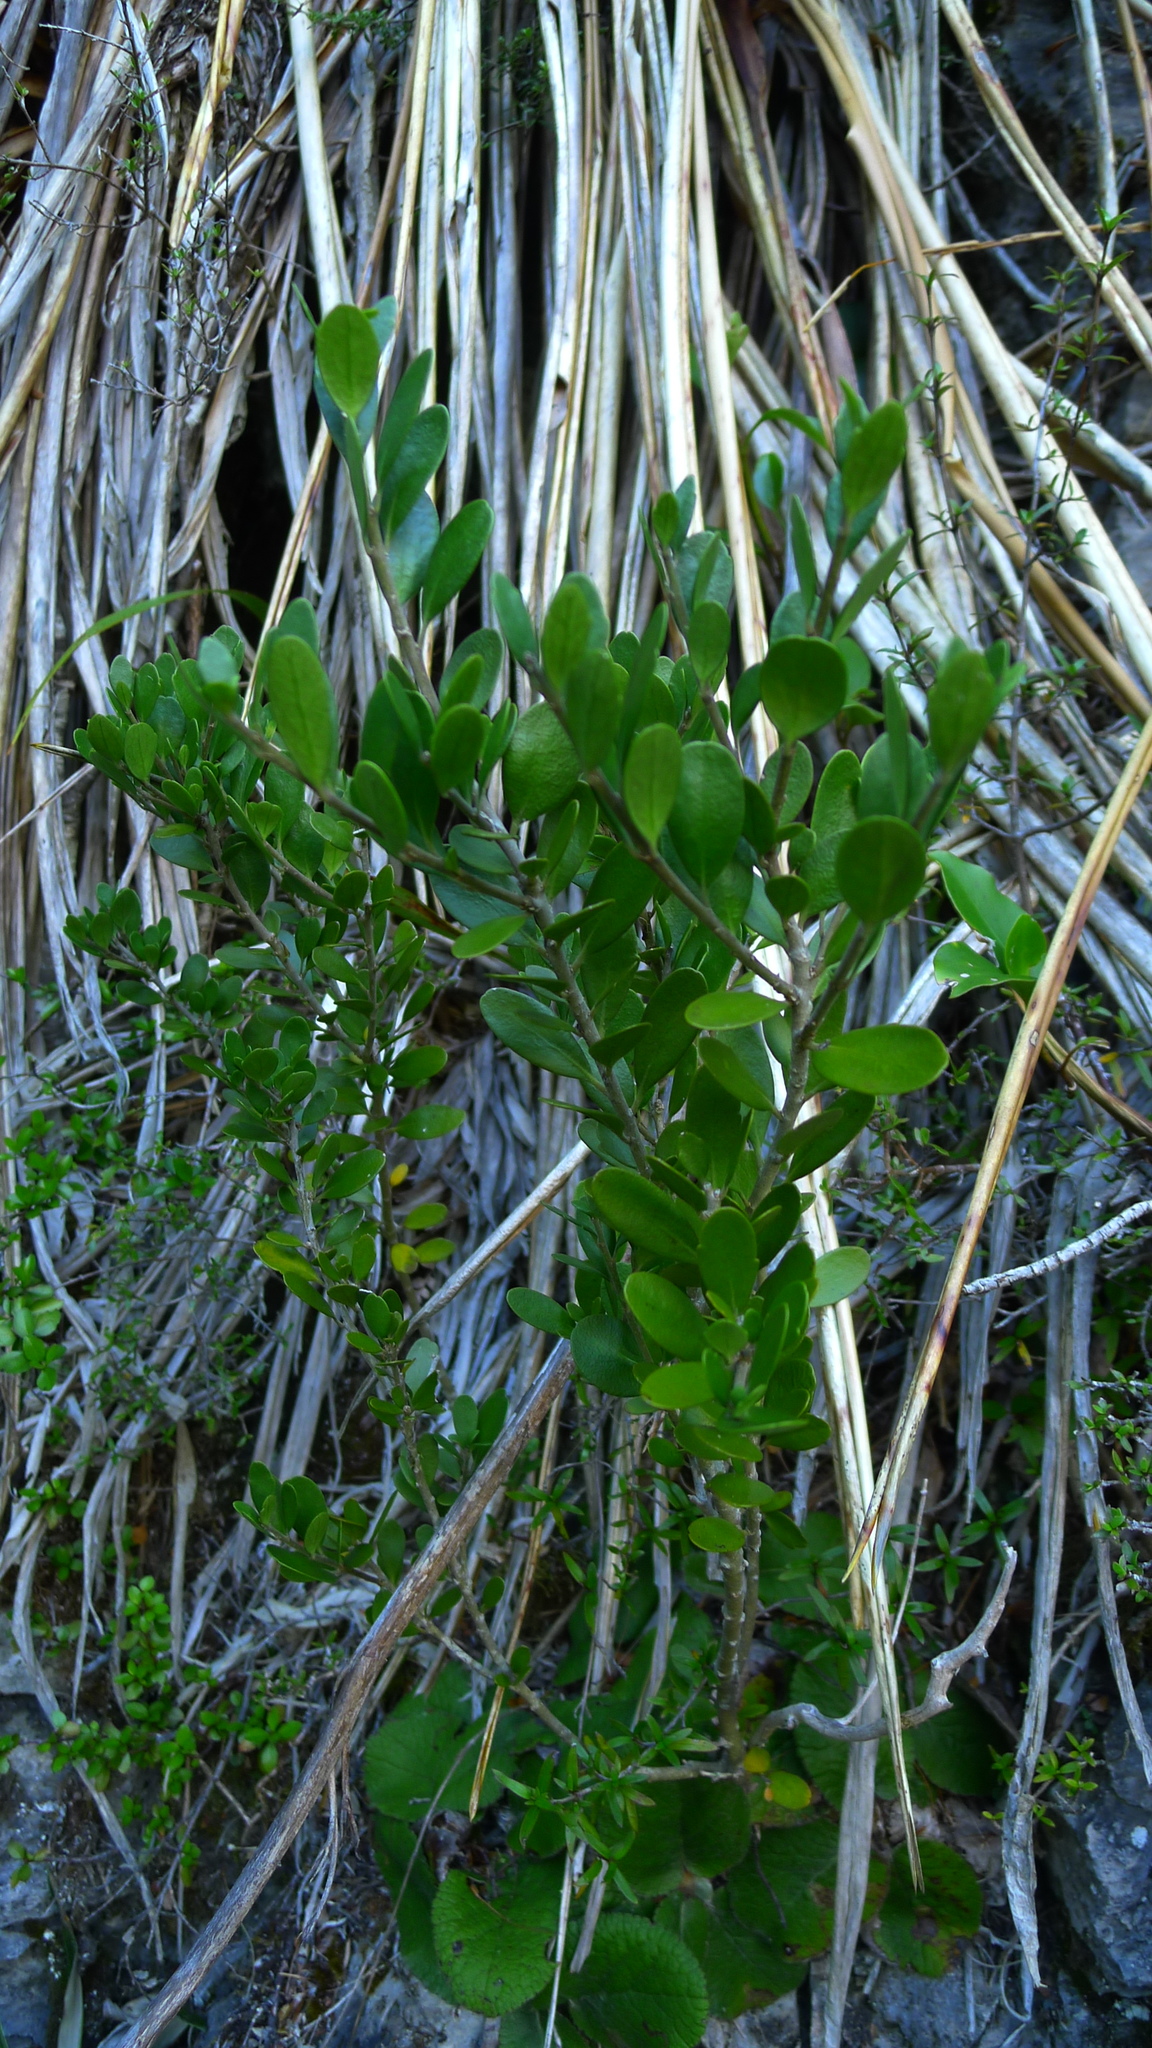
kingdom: Plantae
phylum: Tracheophyta
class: Magnoliopsida
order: Malpighiales
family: Violaceae
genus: Melicytus
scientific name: Melicytus improcerus
